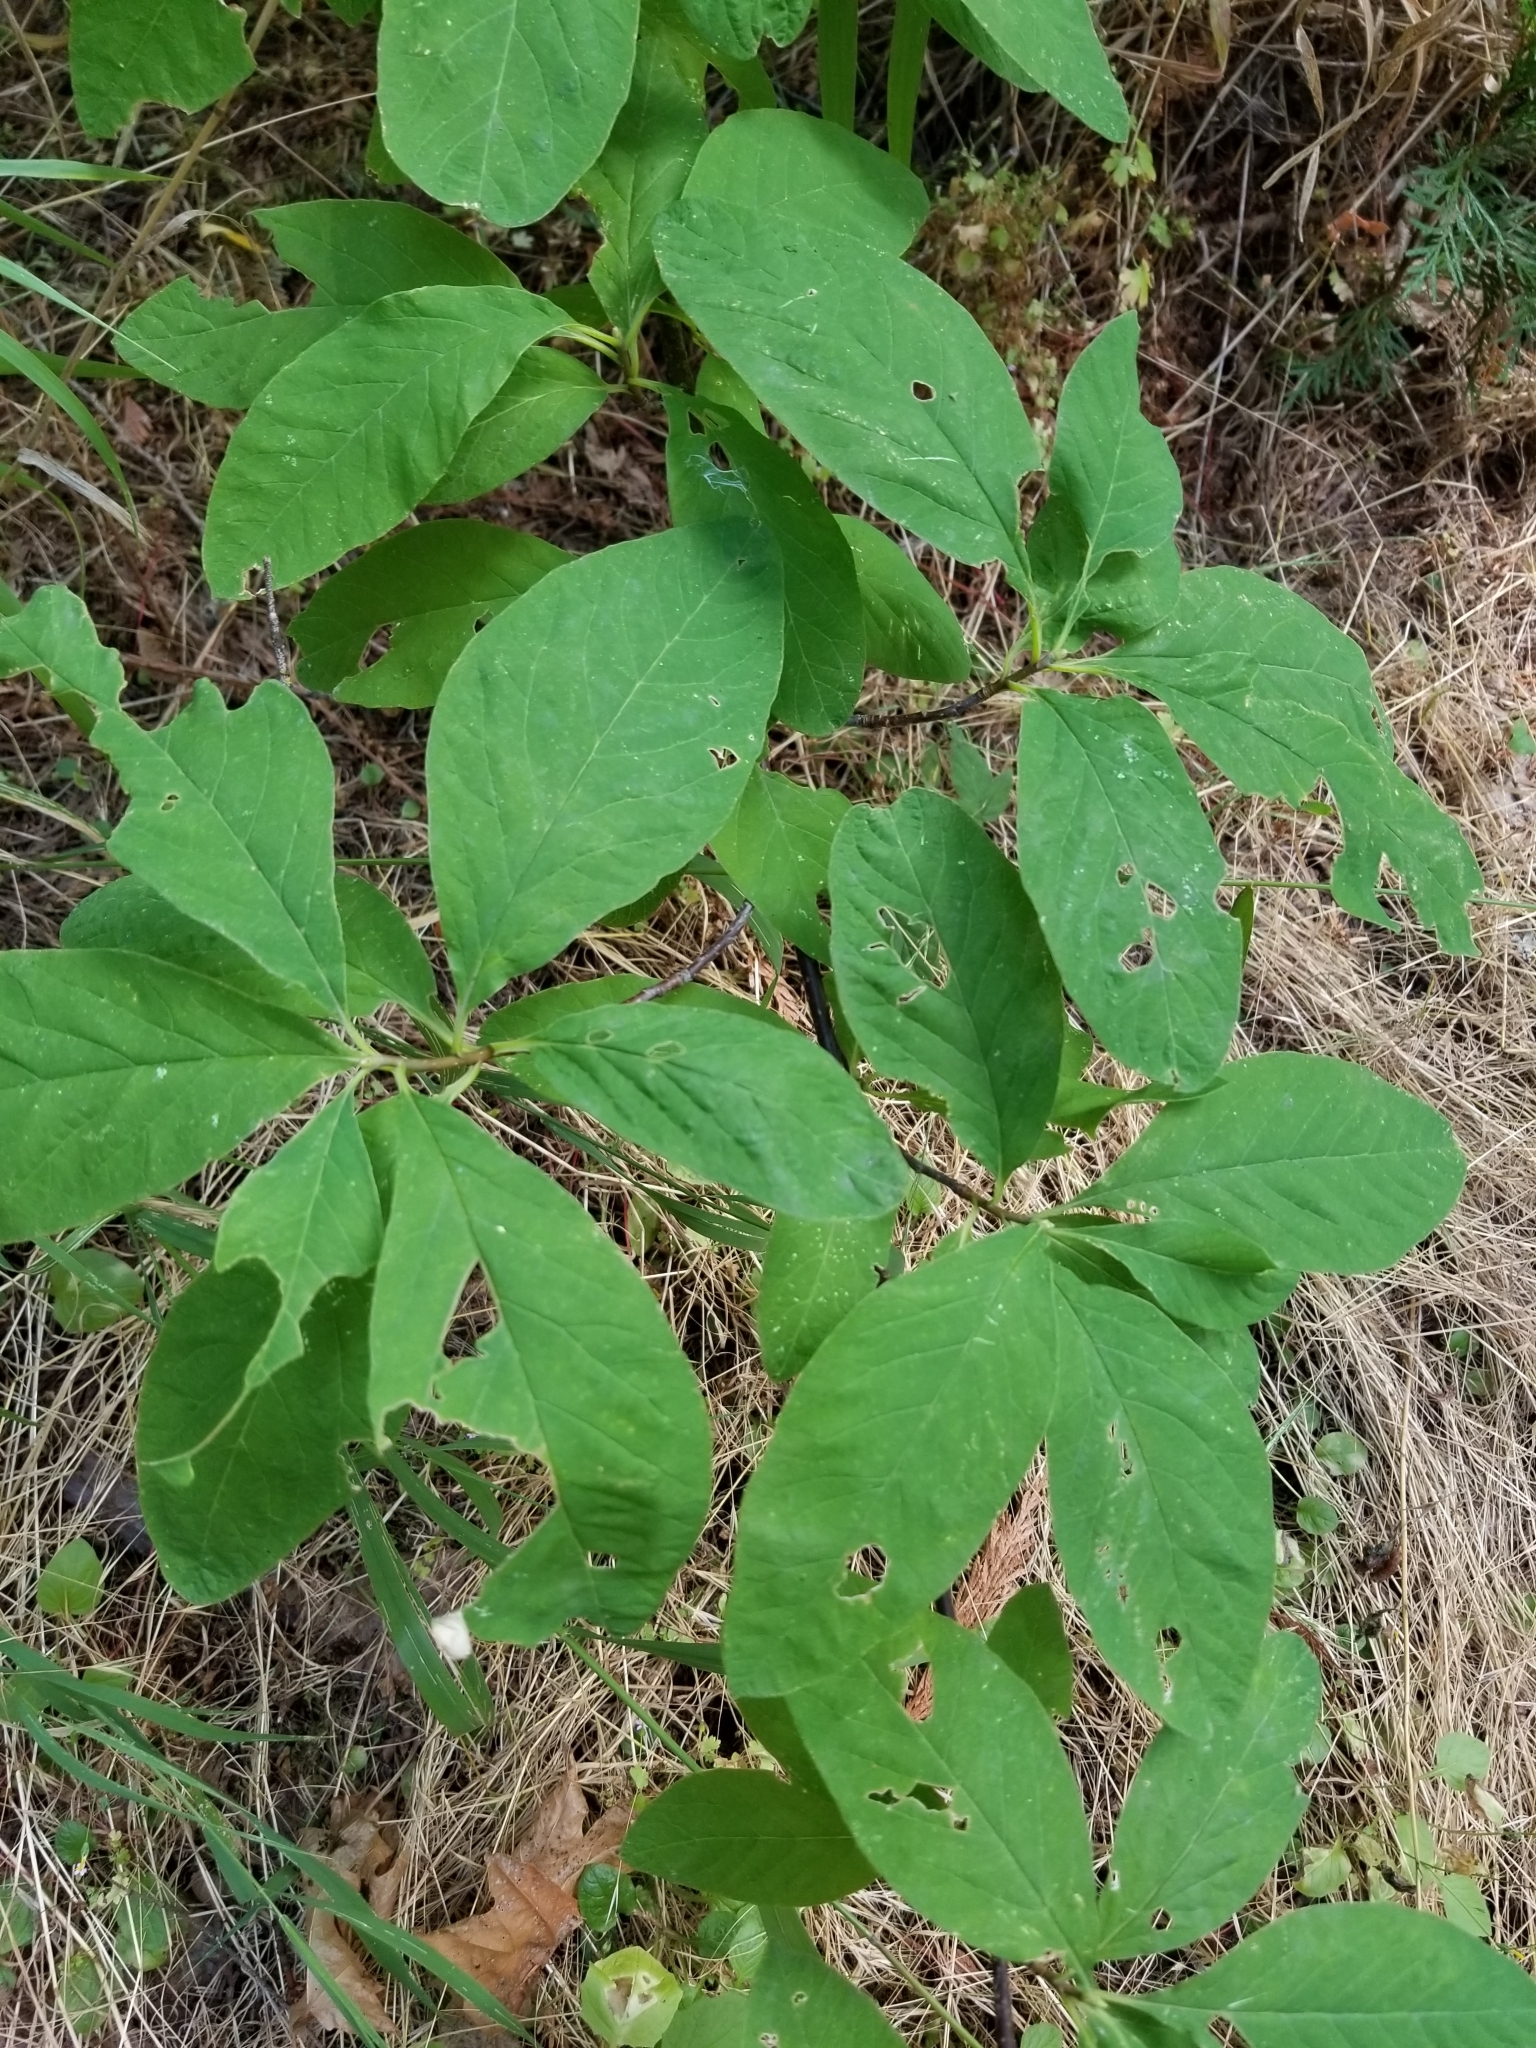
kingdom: Plantae
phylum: Tracheophyta
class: Magnoliopsida
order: Rosales
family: Rosaceae
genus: Oemleria
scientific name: Oemleria cerasiformis
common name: Osoberry
